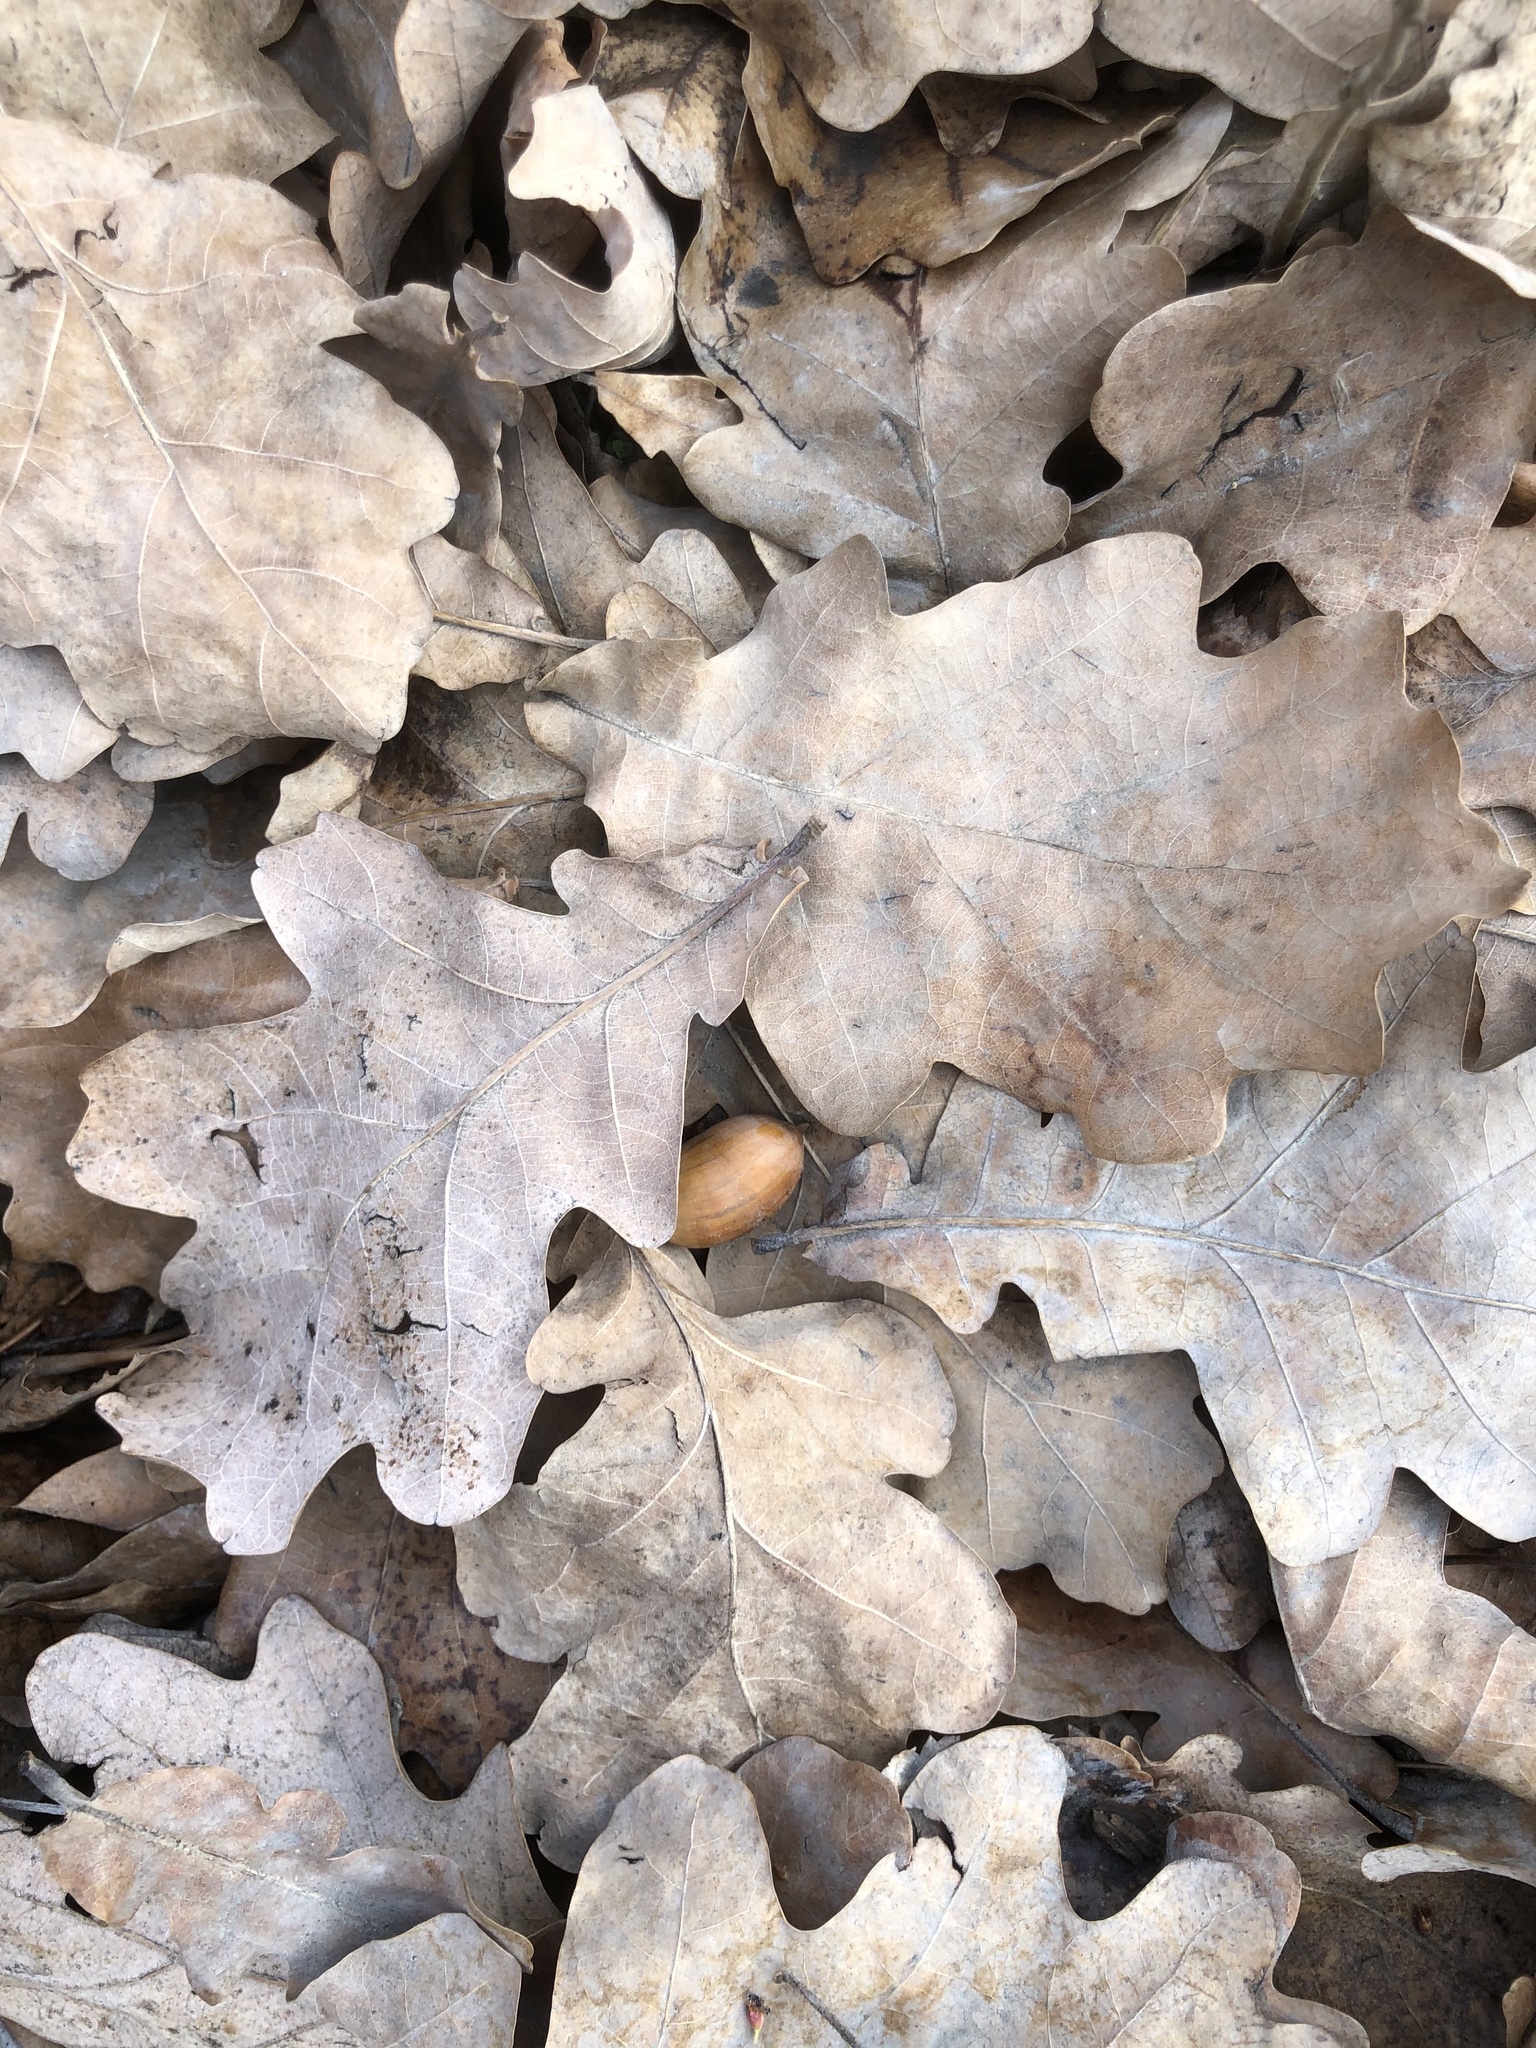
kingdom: Plantae
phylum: Tracheophyta
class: Magnoliopsida
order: Fagales
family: Fagaceae
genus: Quercus
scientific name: Quercus robur
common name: Pedunculate oak
